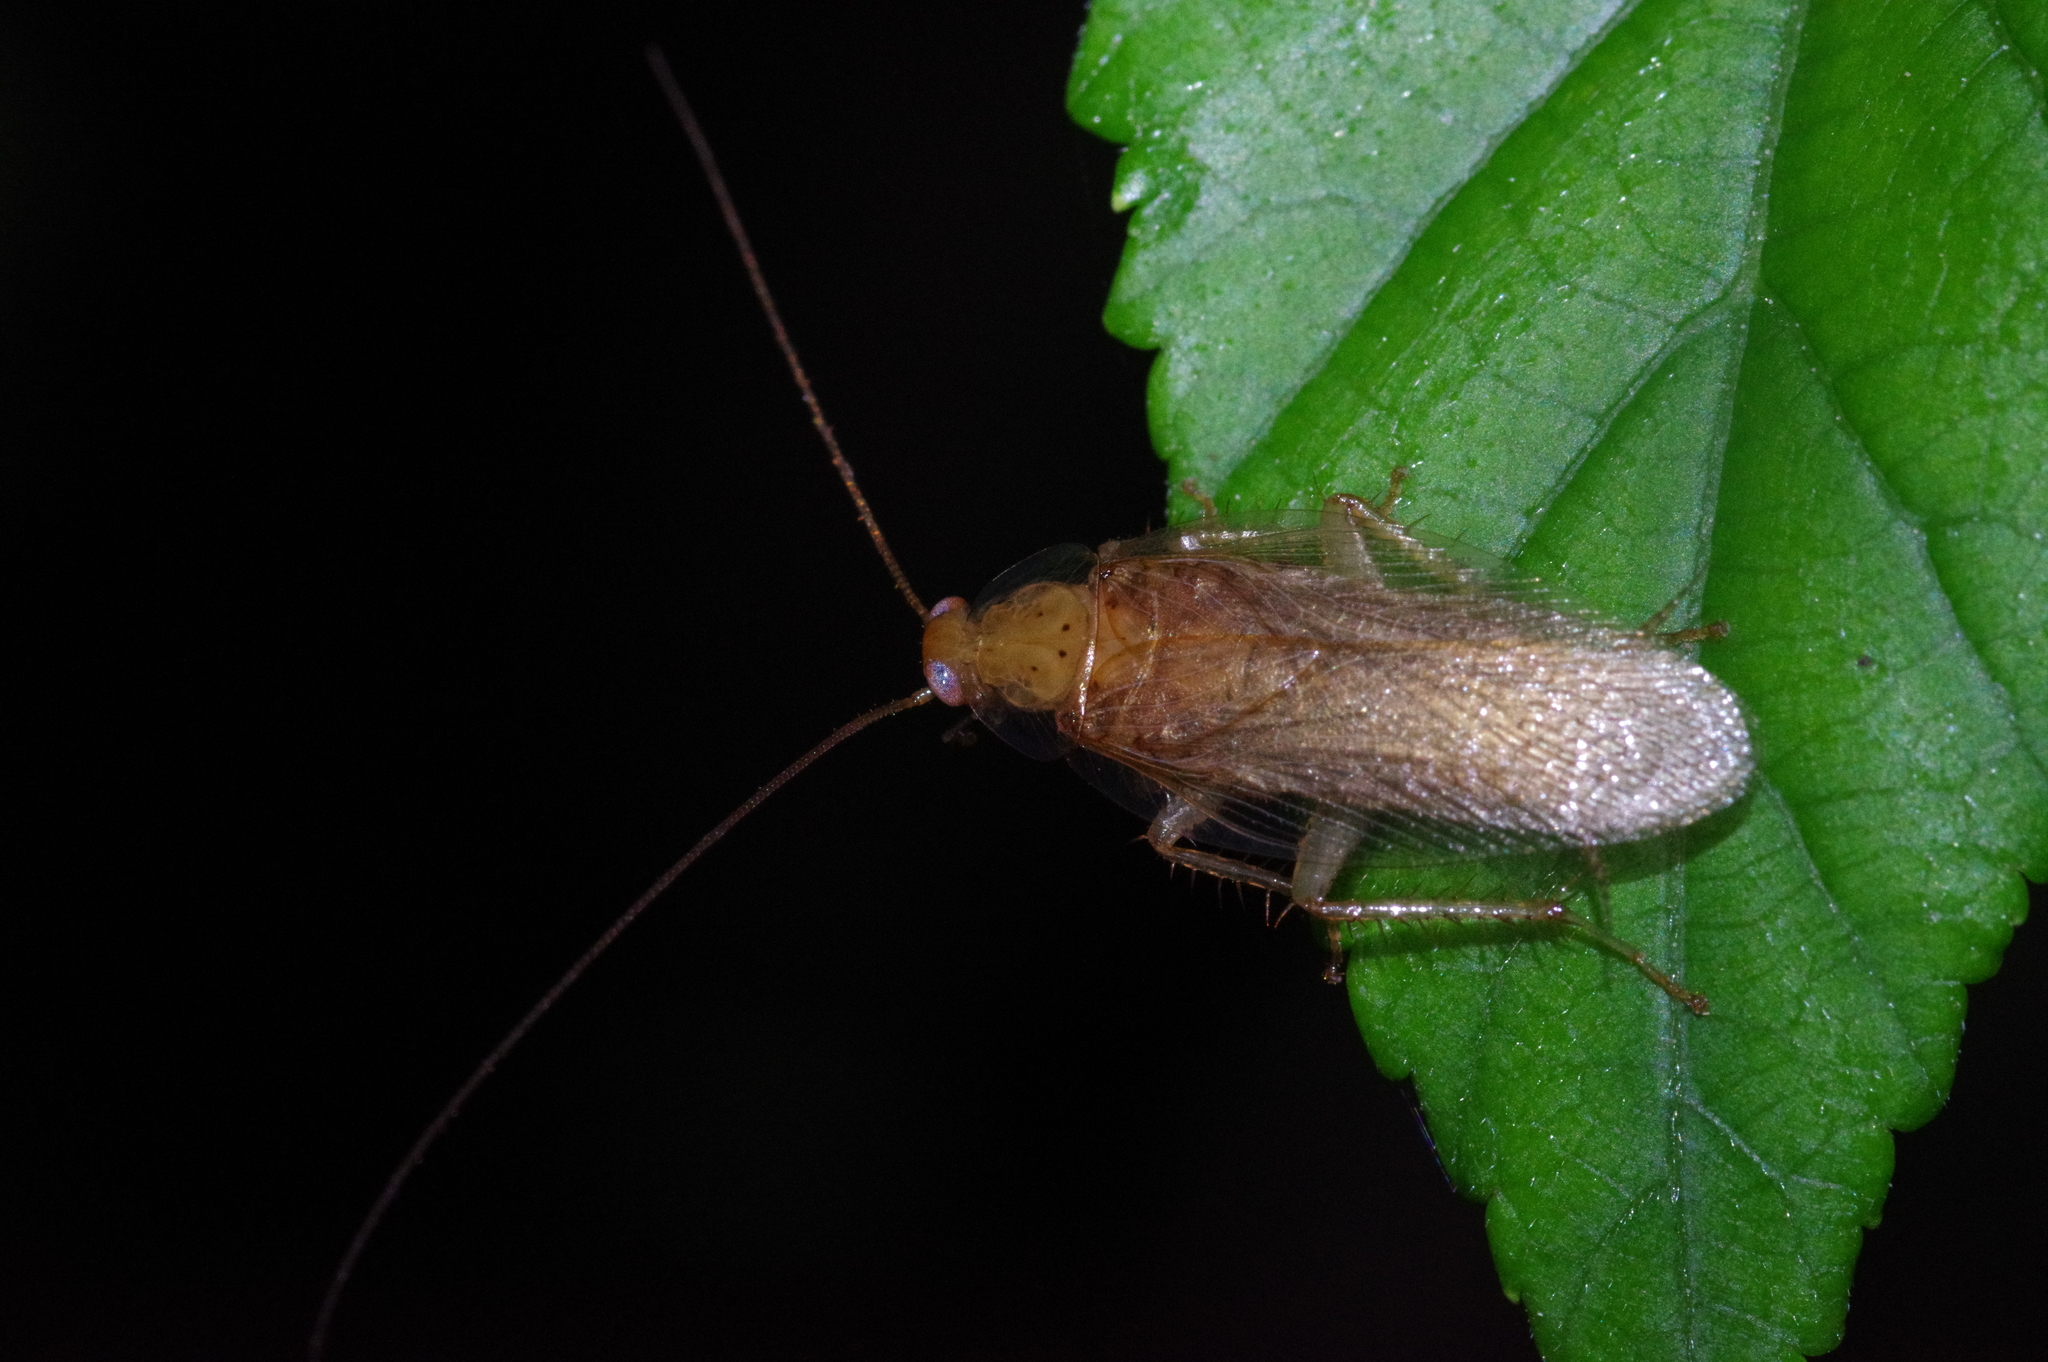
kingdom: Animalia
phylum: Arthropoda
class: Insecta
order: Blattodea
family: Ectobiidae
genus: Megamareta
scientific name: Megamareta pallidiola
